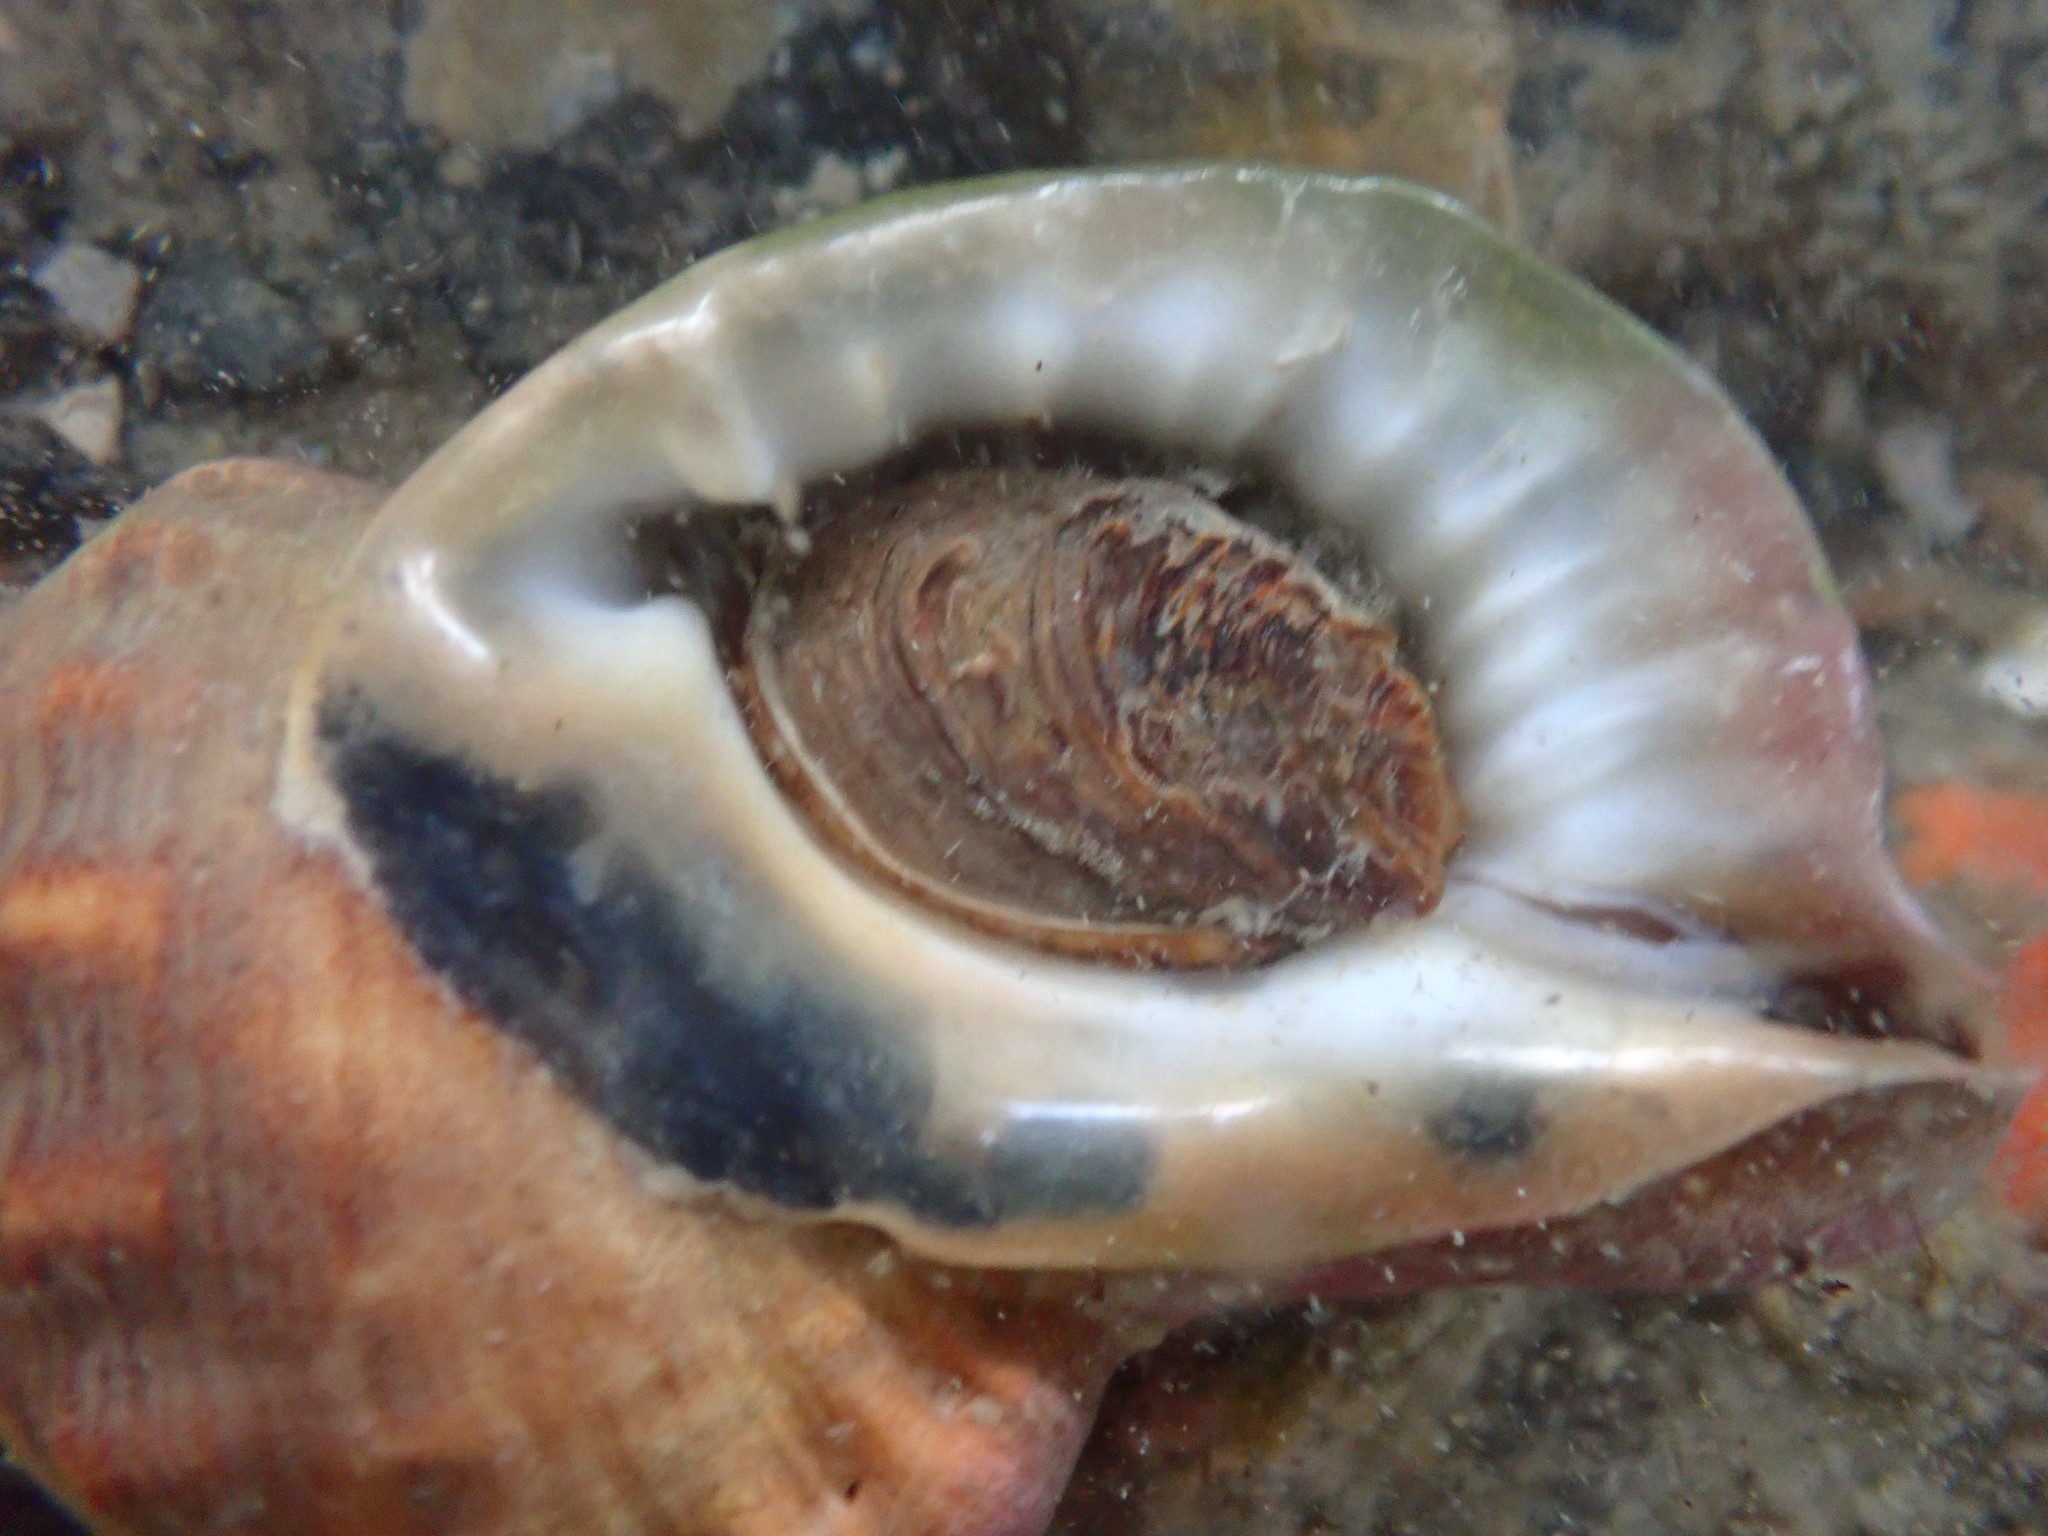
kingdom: Animalia
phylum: Mollusca
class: Gastropoda
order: Littorinimorpha
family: Ranellidae
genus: Ranella
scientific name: Ranella australasia
